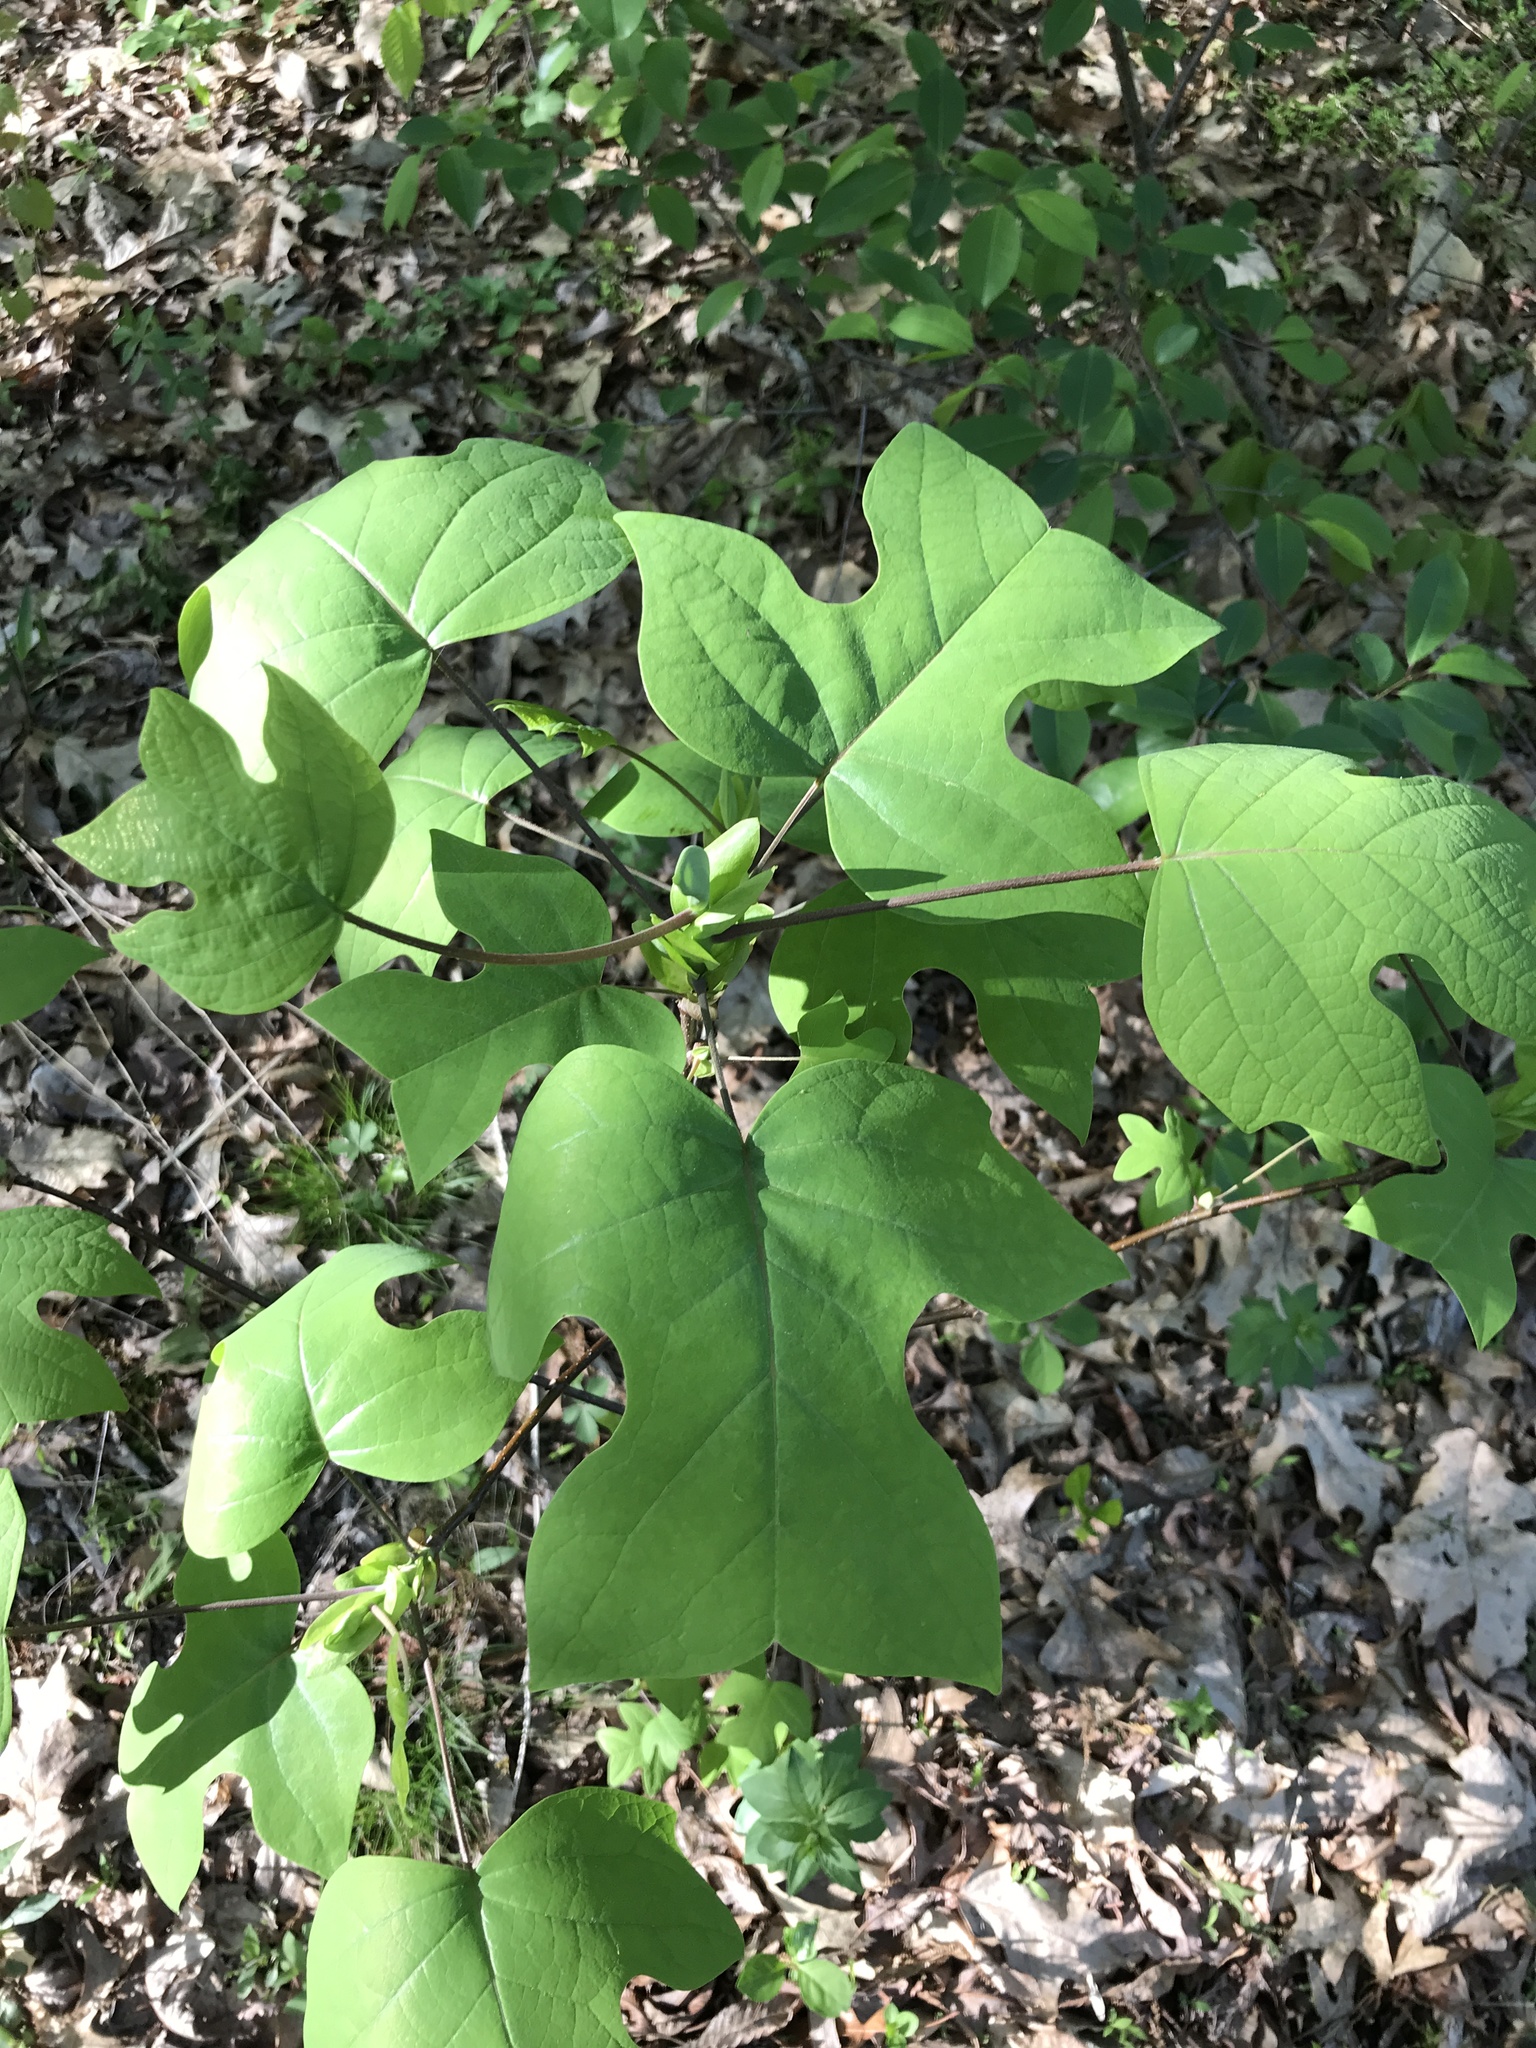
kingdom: Plantae
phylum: Tracheophyta
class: Magnoliopsida
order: Magnoliales
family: Magnoliaceae
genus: Liriodendron
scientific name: Liriodendron tulipifera
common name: Tulip tree
